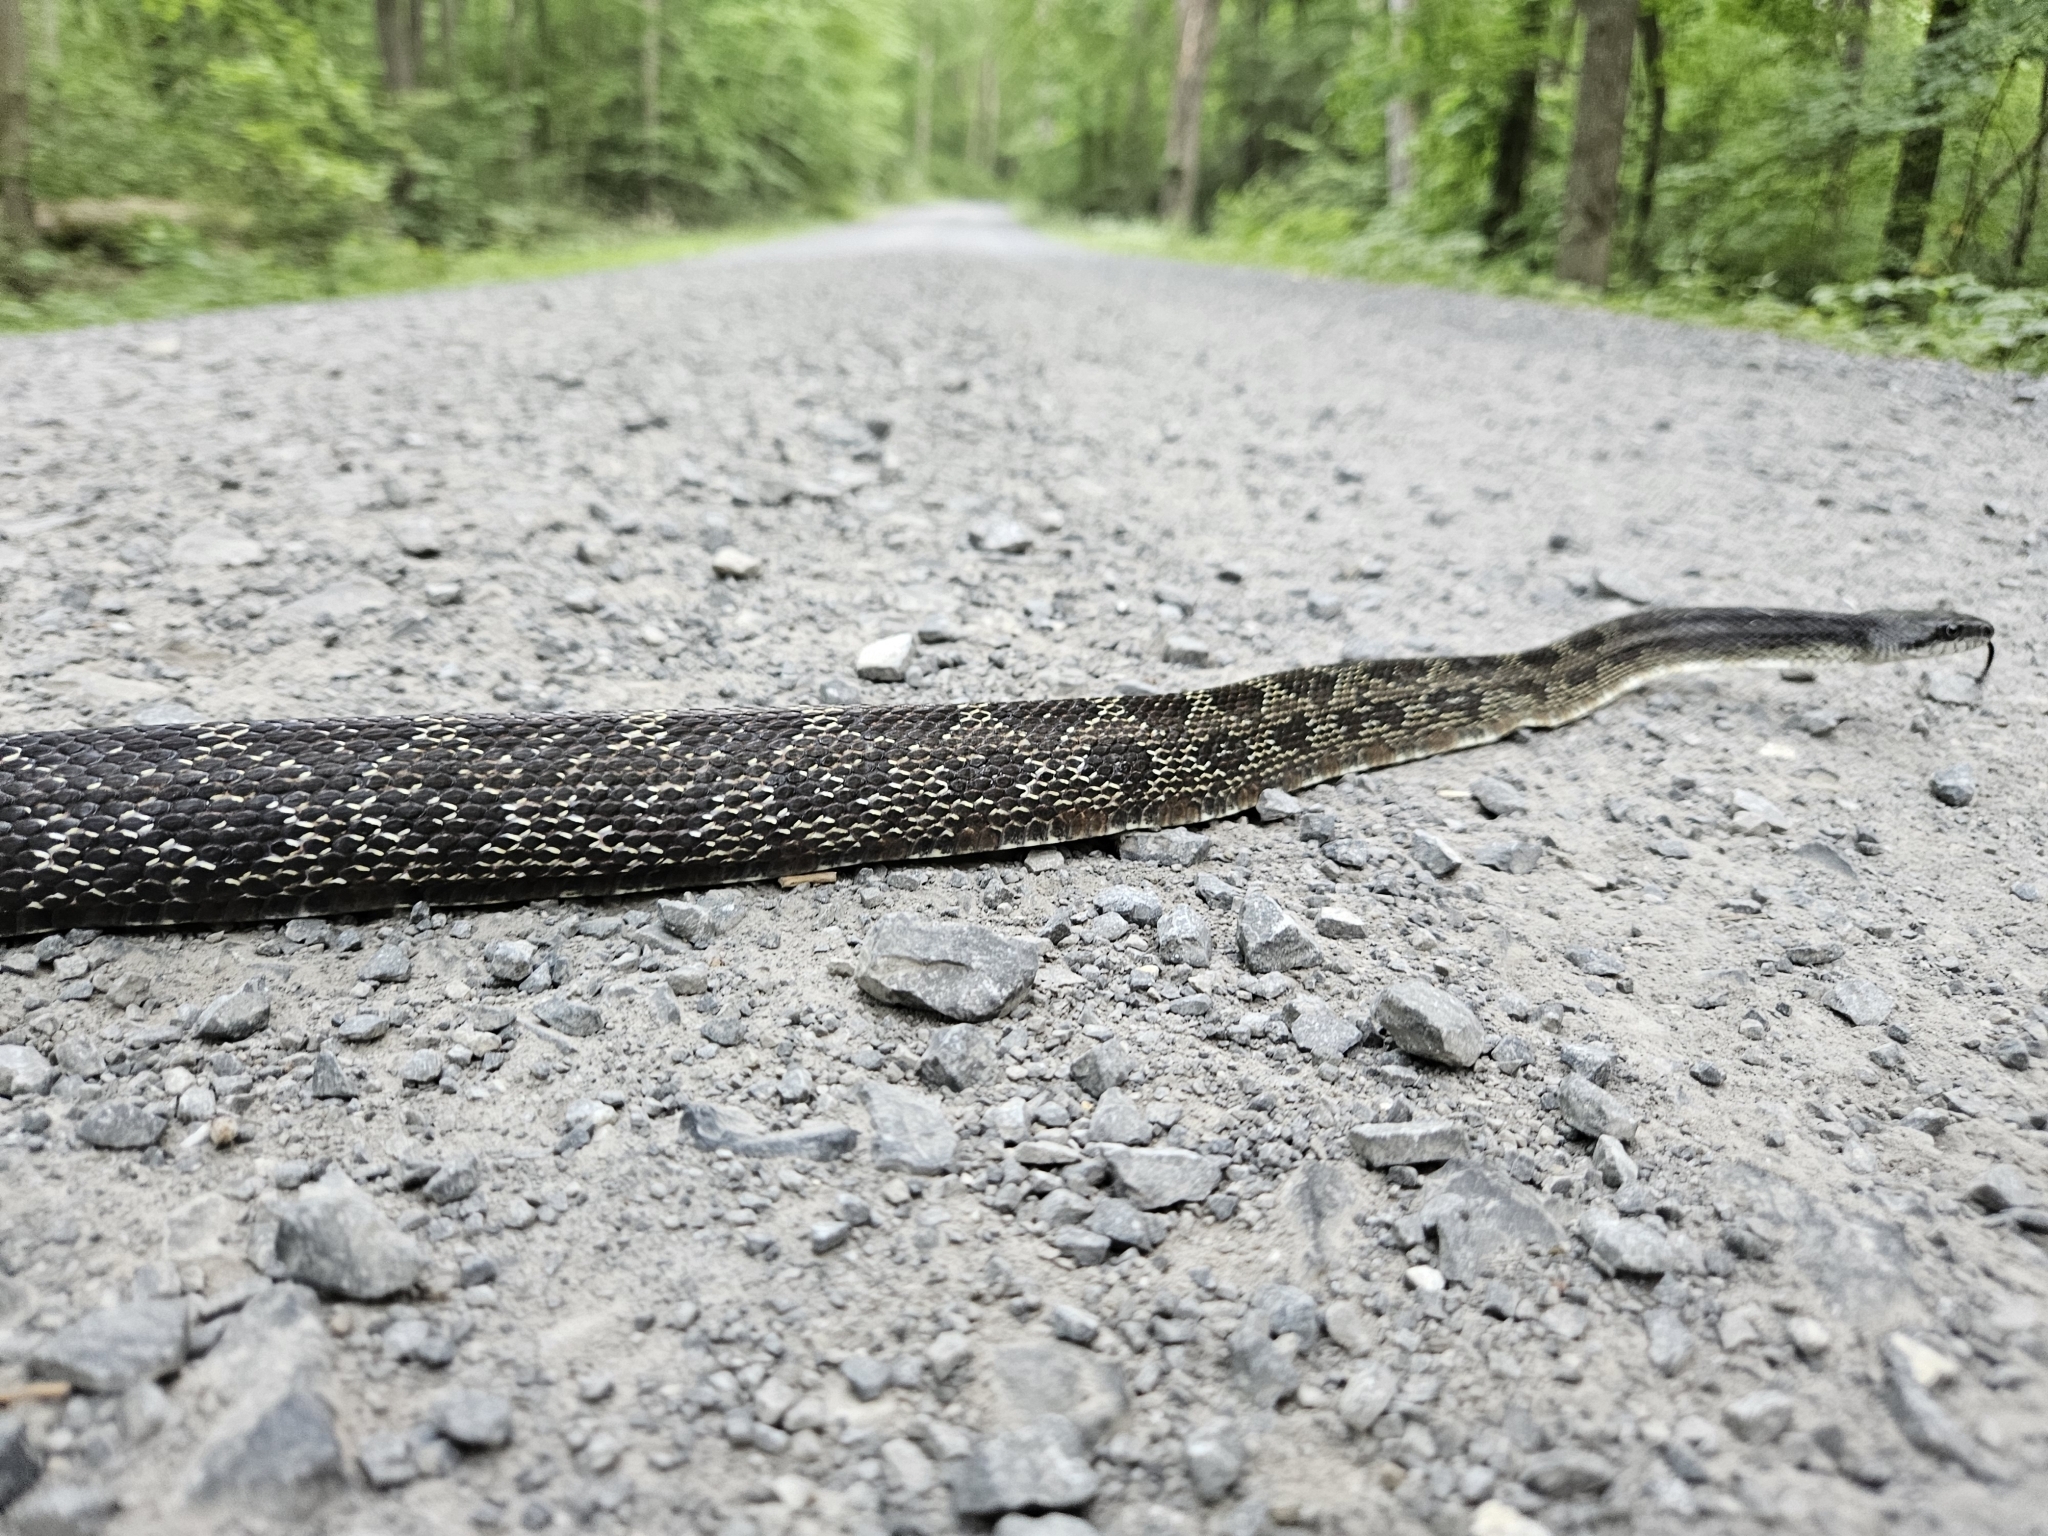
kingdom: Animalia
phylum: Chordata
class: Squamata
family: Colubridae
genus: Pantherophis
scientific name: Pantherophis
